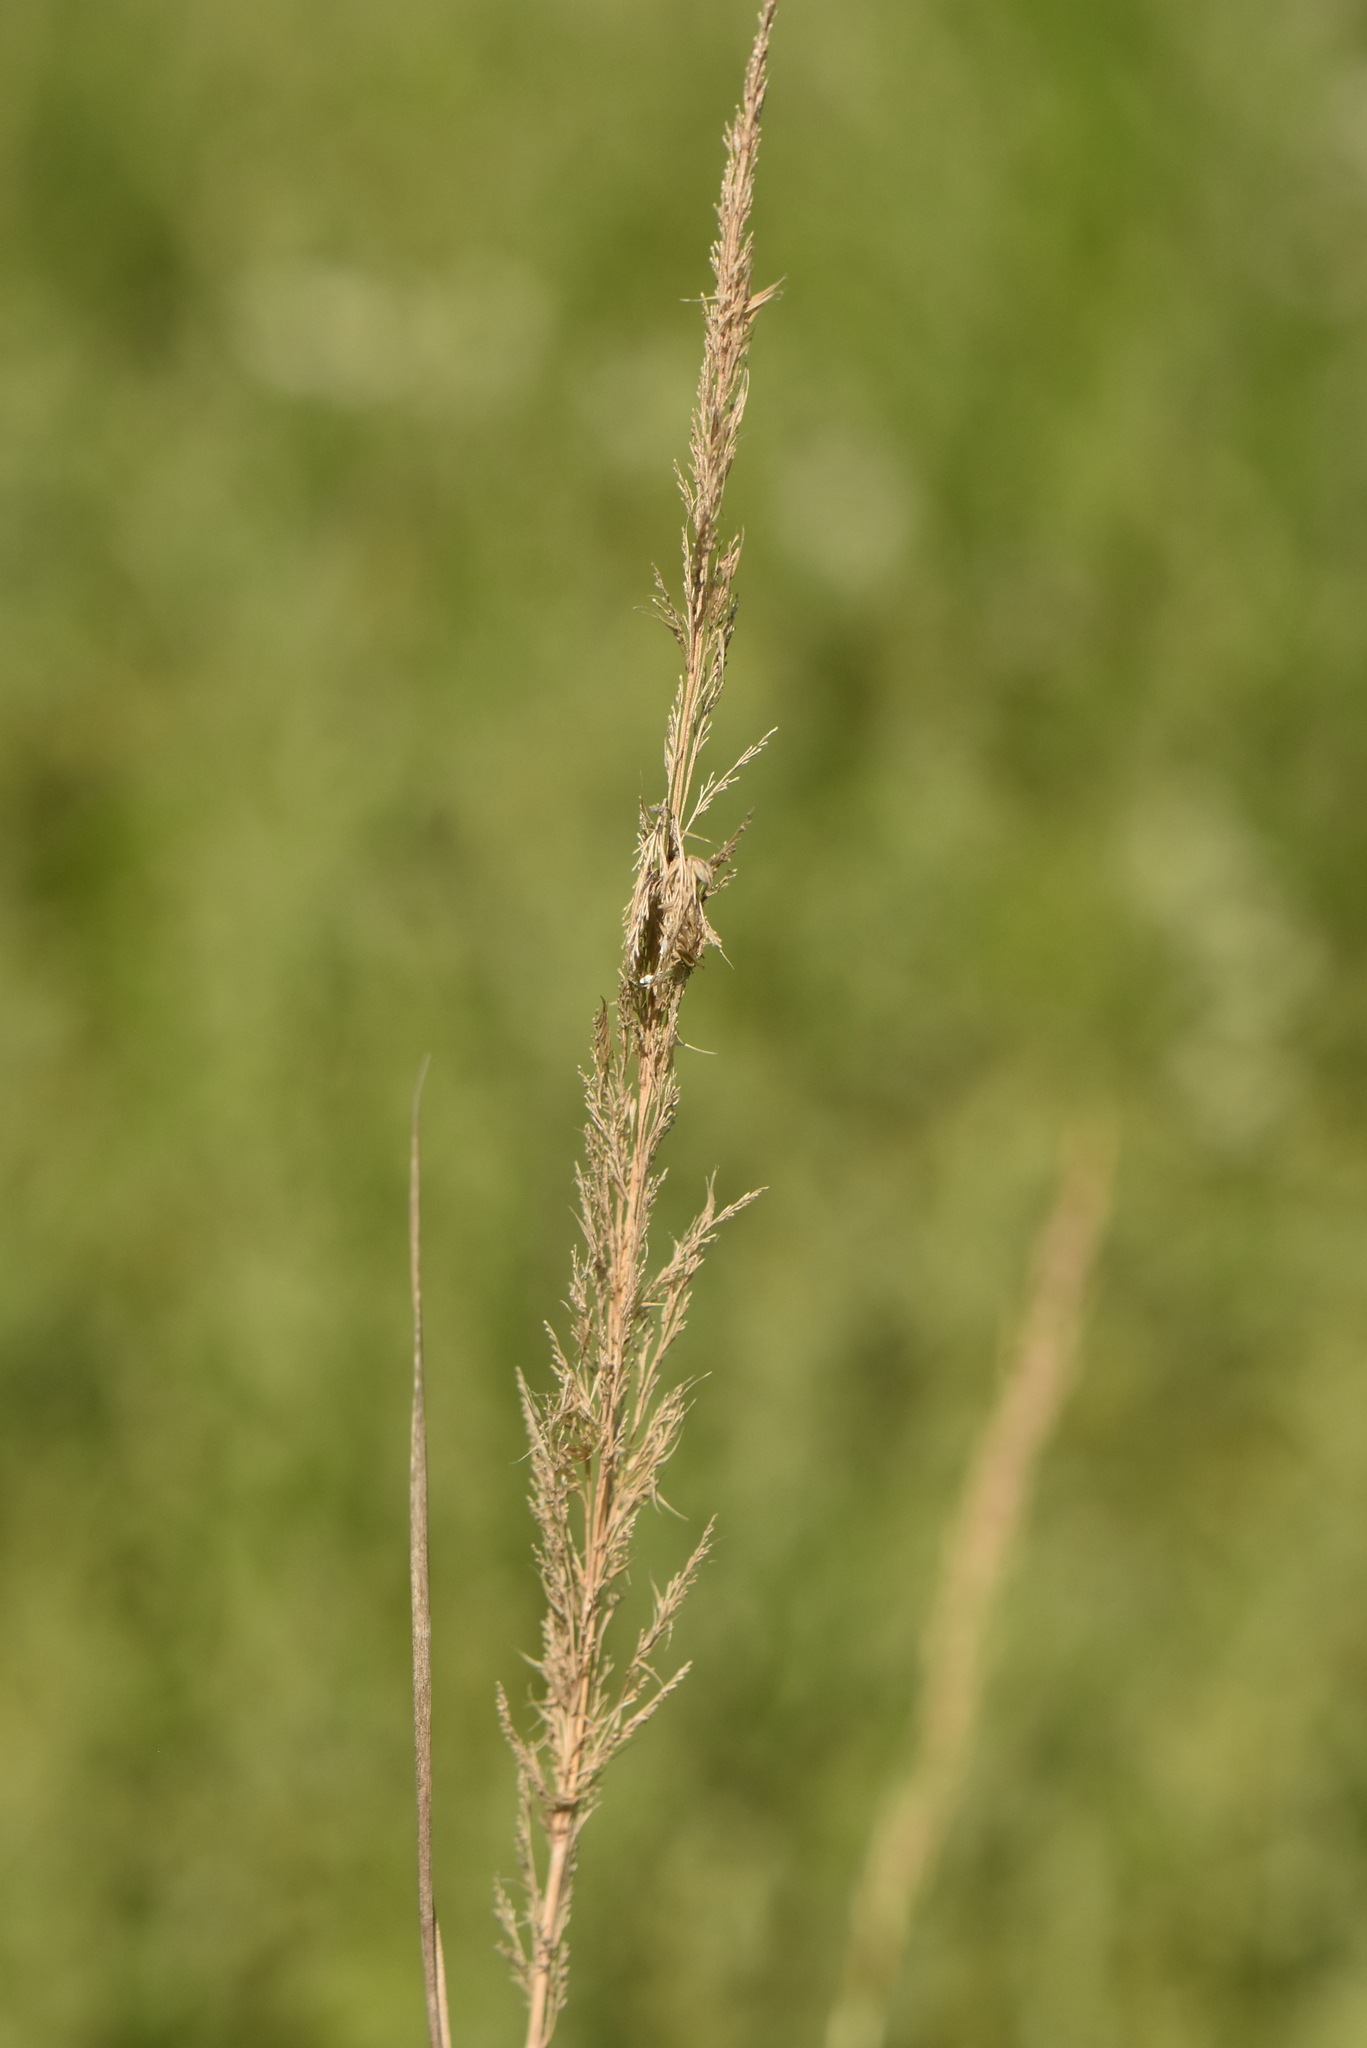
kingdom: Plantae
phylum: Tracheophyta
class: Liliopsida
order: Poales
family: Poaceae
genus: Calamagrostis
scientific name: Calamagrostis epigejos
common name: Wood small-reed
